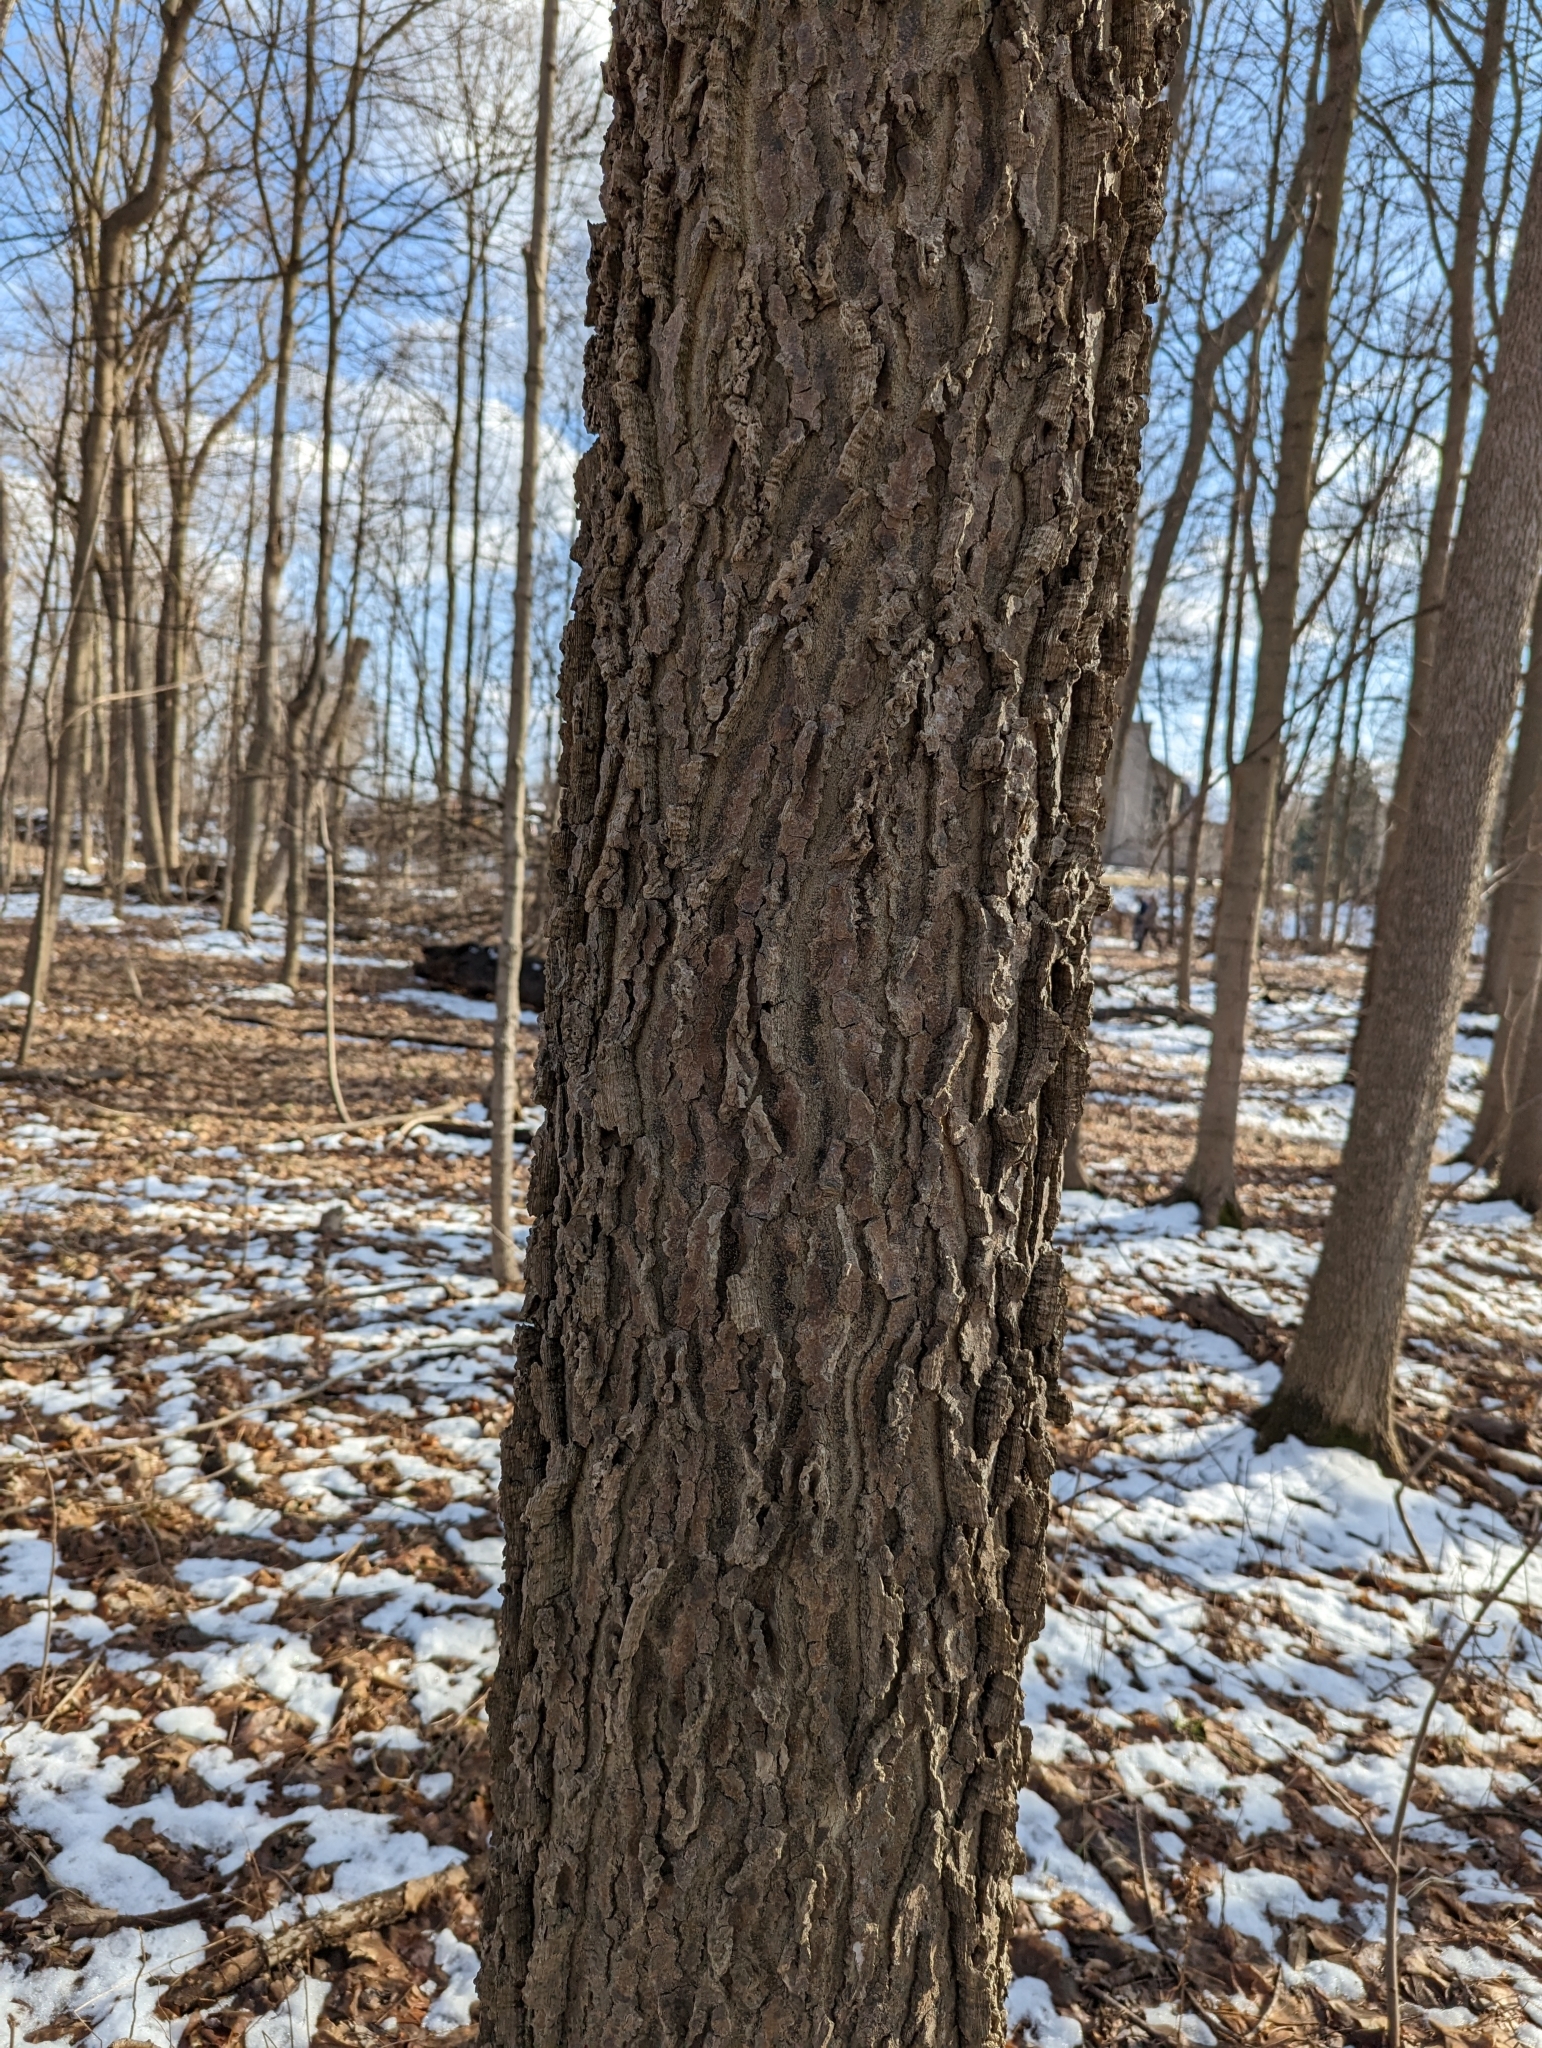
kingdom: Plantae
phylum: Tracheophyta
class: Magnoliopsida
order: Rosales
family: Cannabaceae
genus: Celtis
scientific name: Celtis occidentalis
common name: Common hackberry
